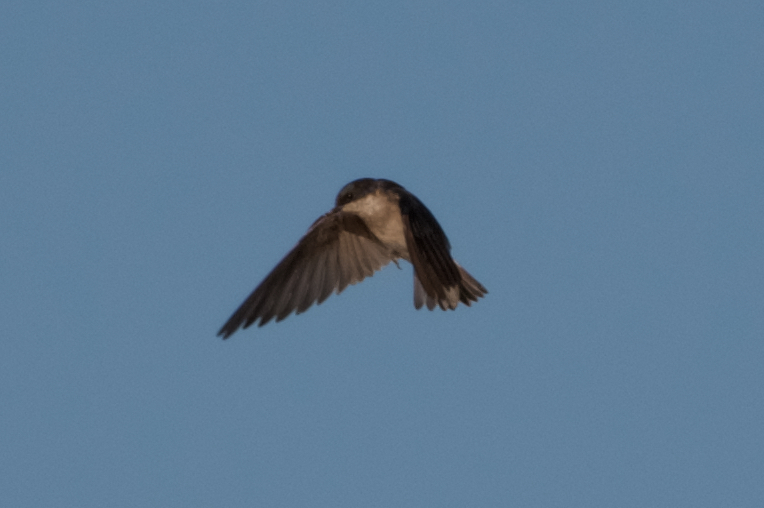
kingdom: Animalia
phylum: Chordata
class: Aves
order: Passeriformes
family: Hirundinidae
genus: Tachycineta
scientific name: Tachycineta bicolor
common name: Tree swallow
